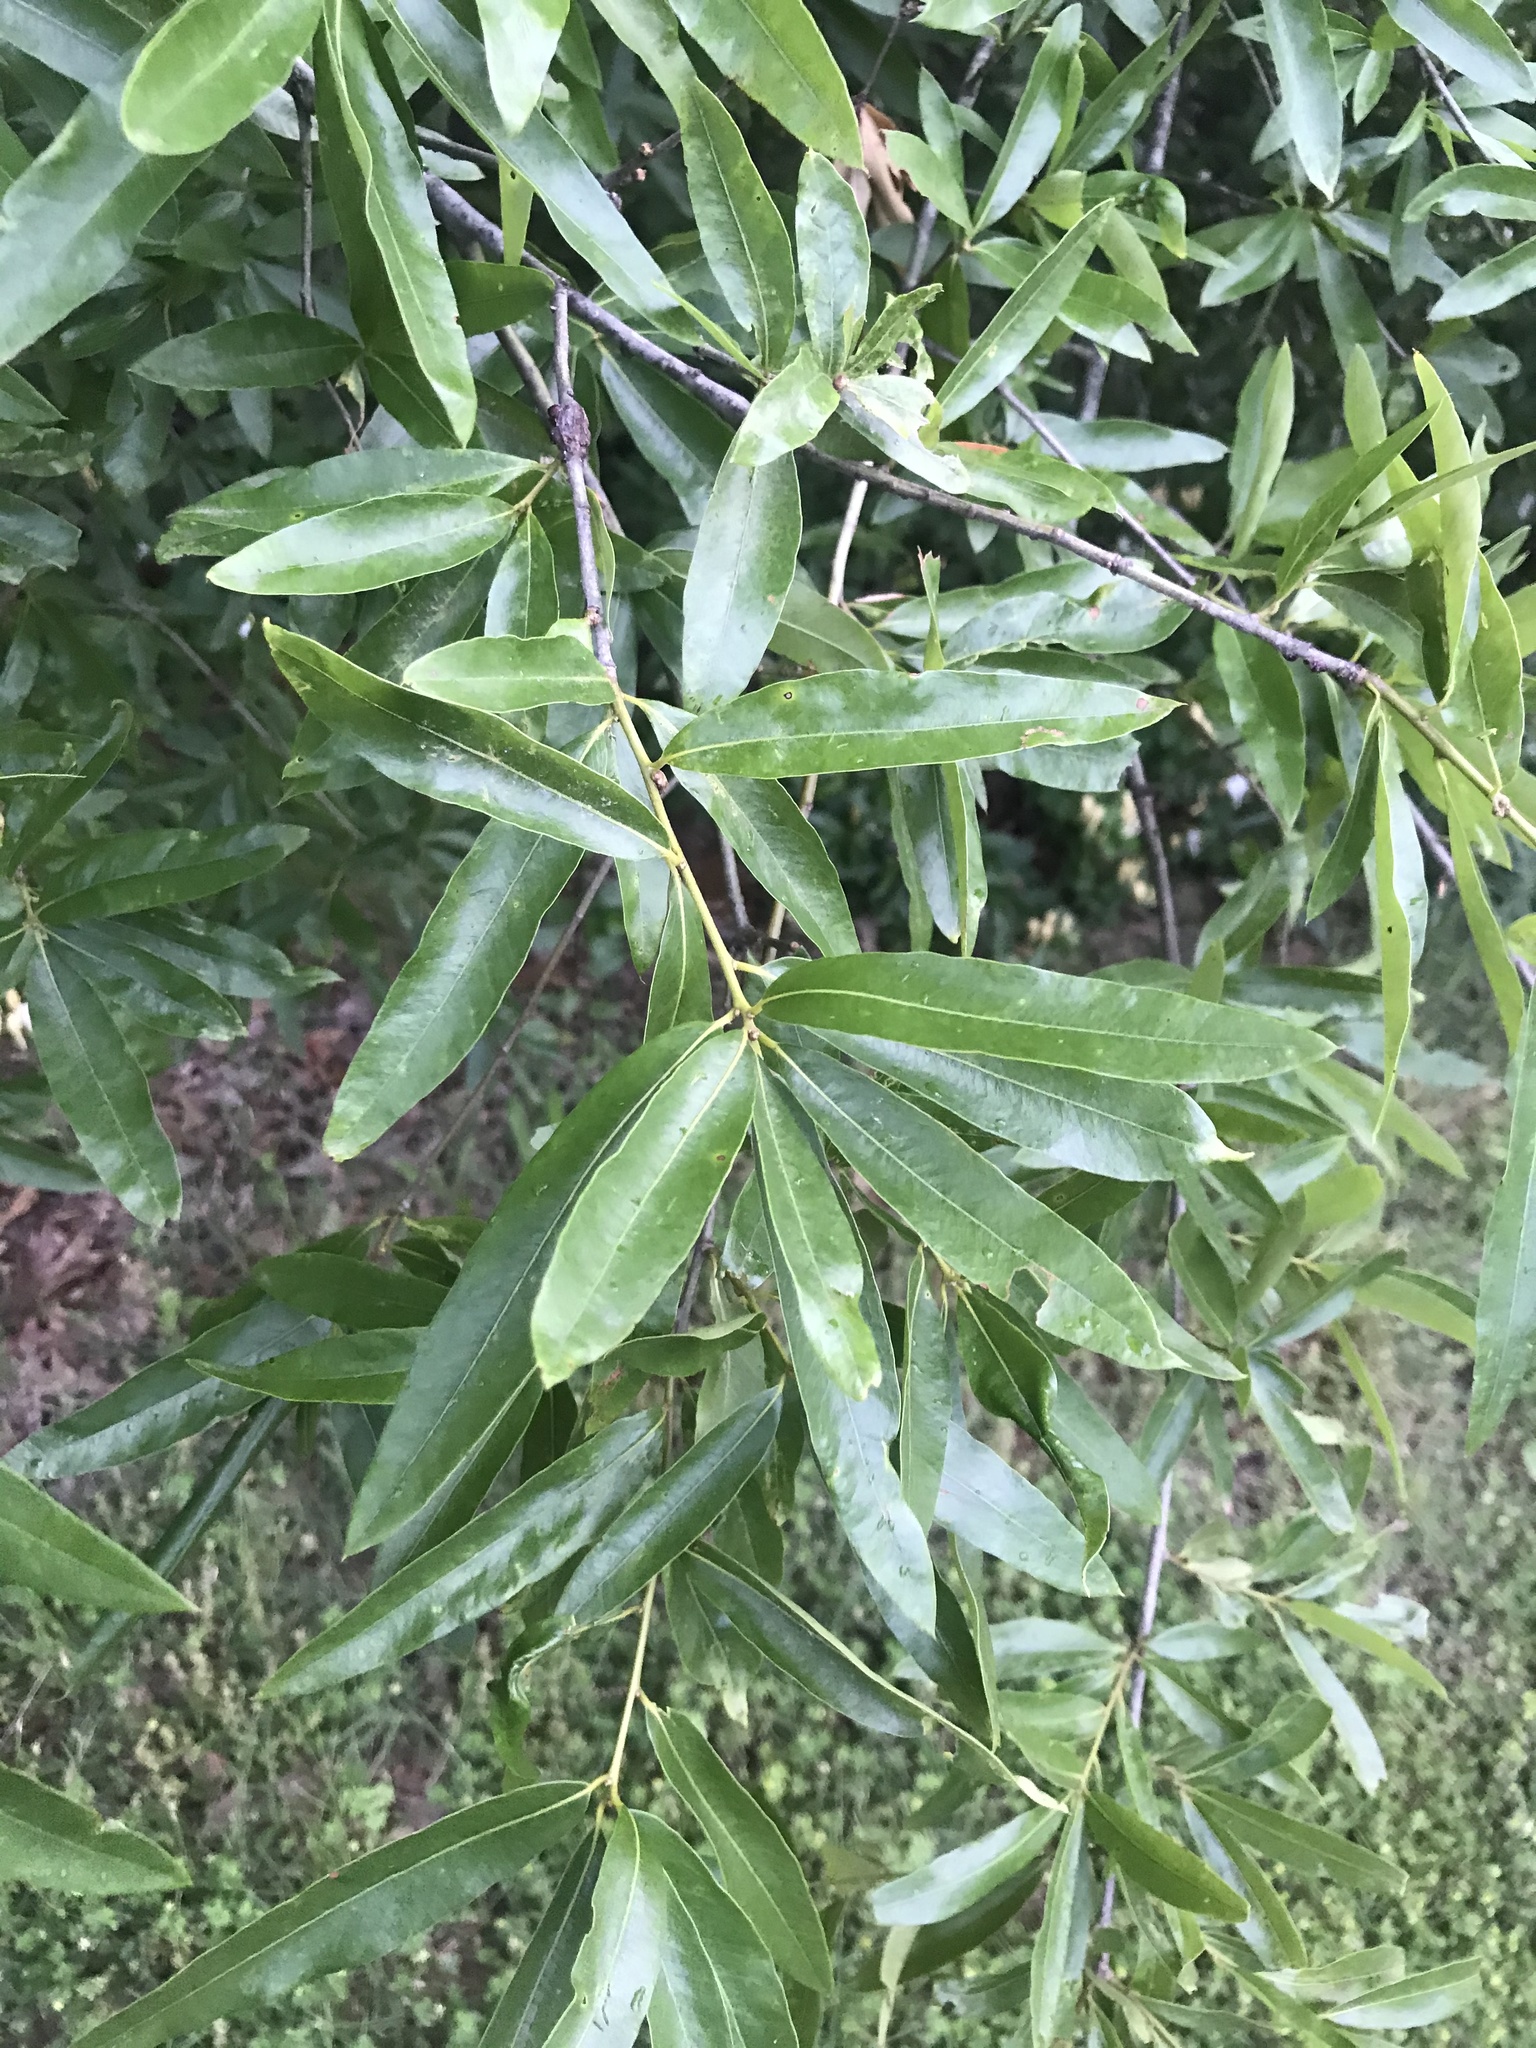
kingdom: Plantae
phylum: Tracheophyta
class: Magnoliopsida
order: Fagales
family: Fagaceae
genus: Quercus
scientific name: Quercus phellos
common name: Willow oak
